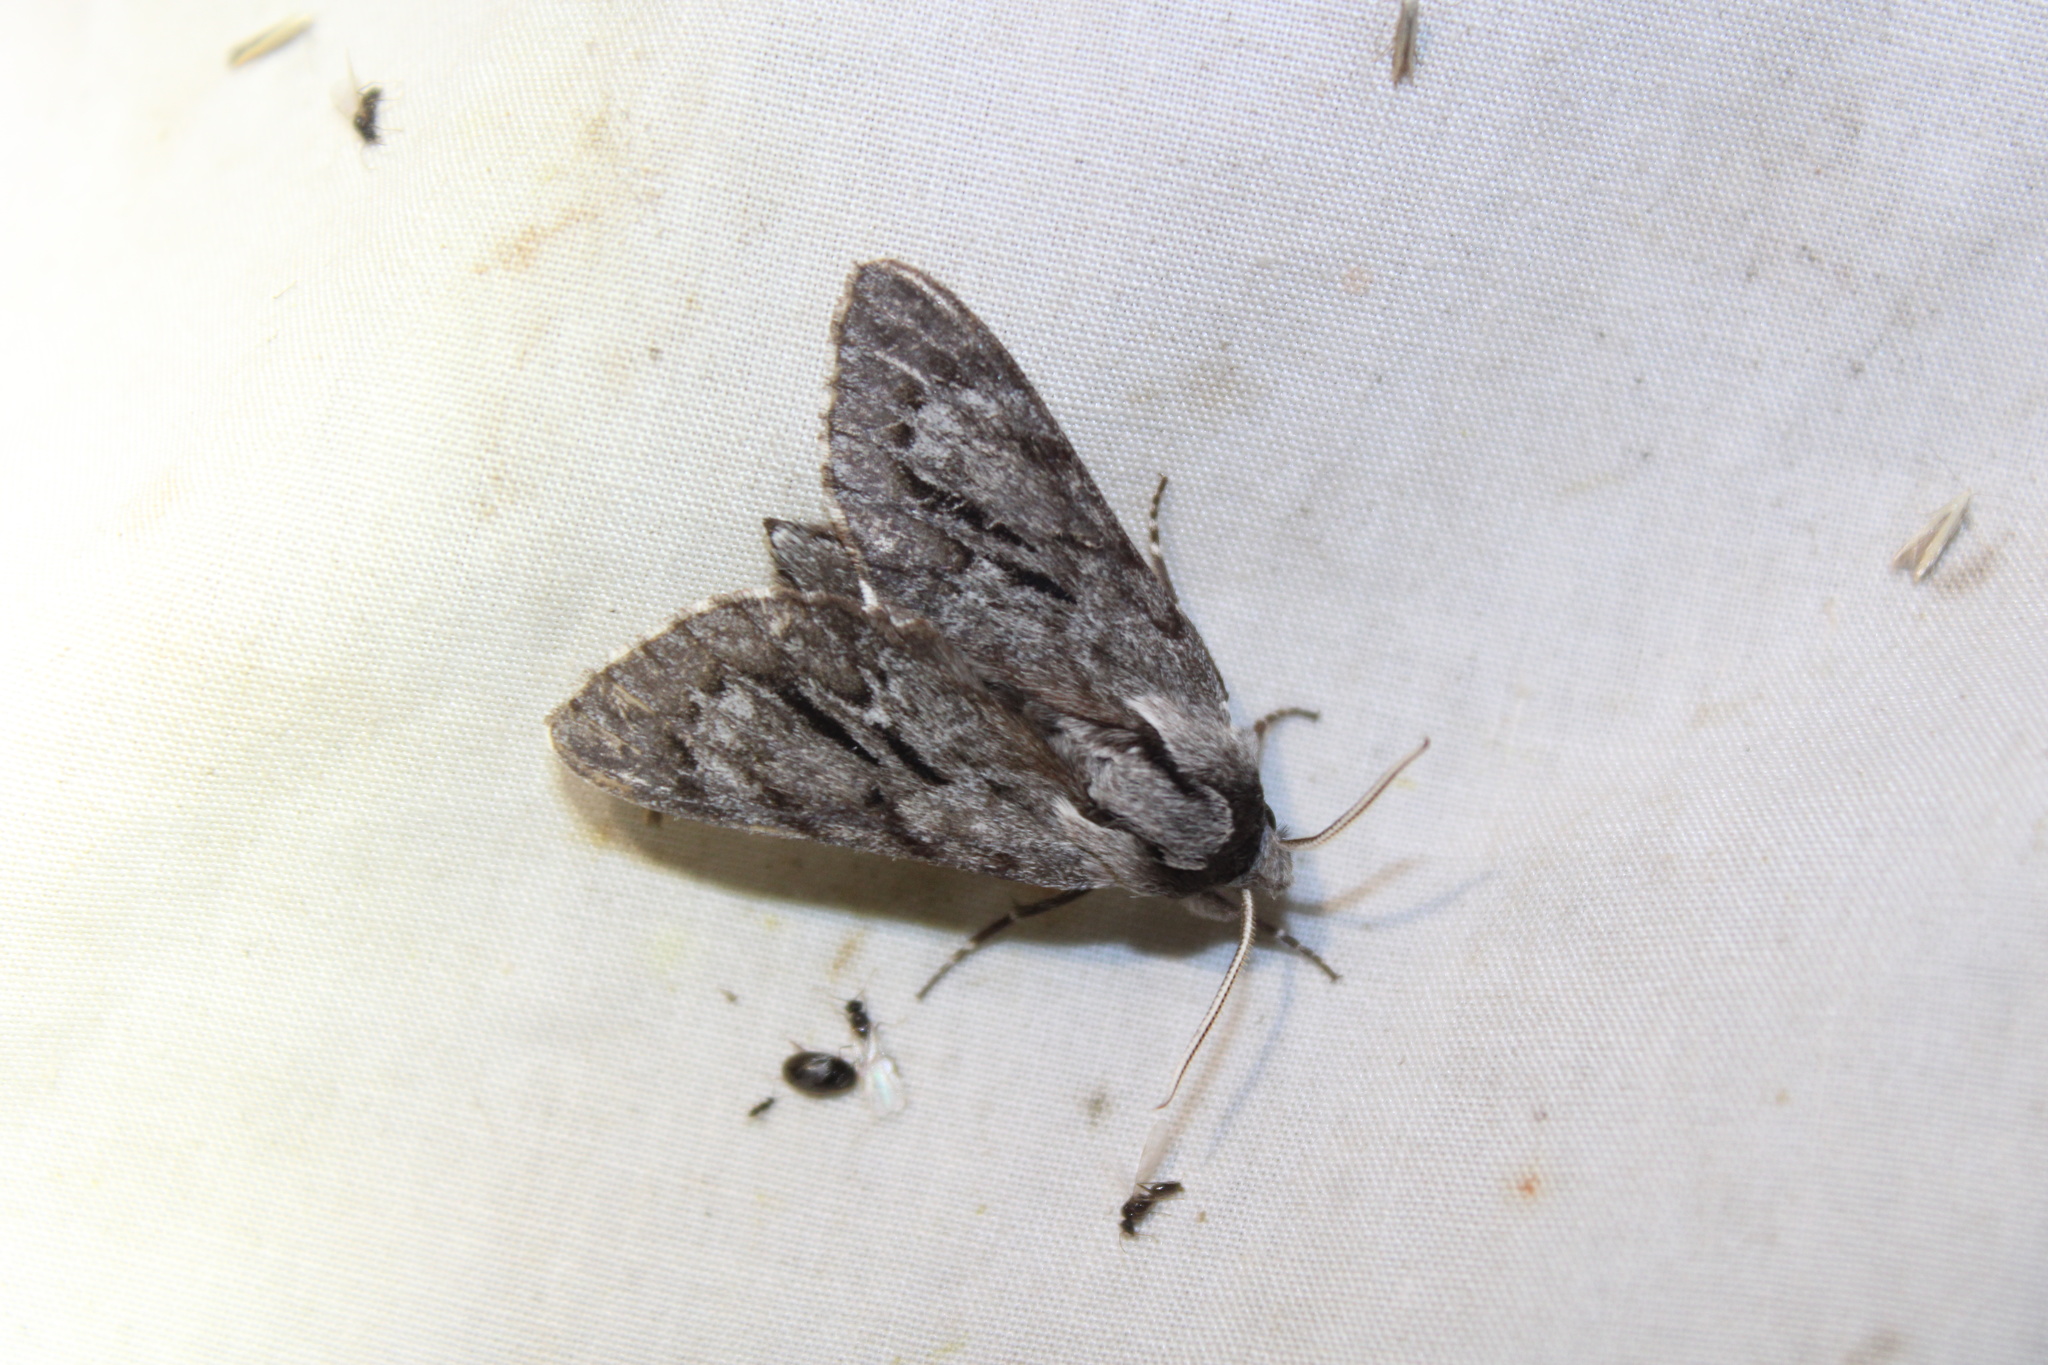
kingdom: Animalia
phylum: Arthropoda
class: Insecta
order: Lepidoptera
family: Sphingidae
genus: Lapara
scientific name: Lapara bombycoides
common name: Northern pine sphinx
